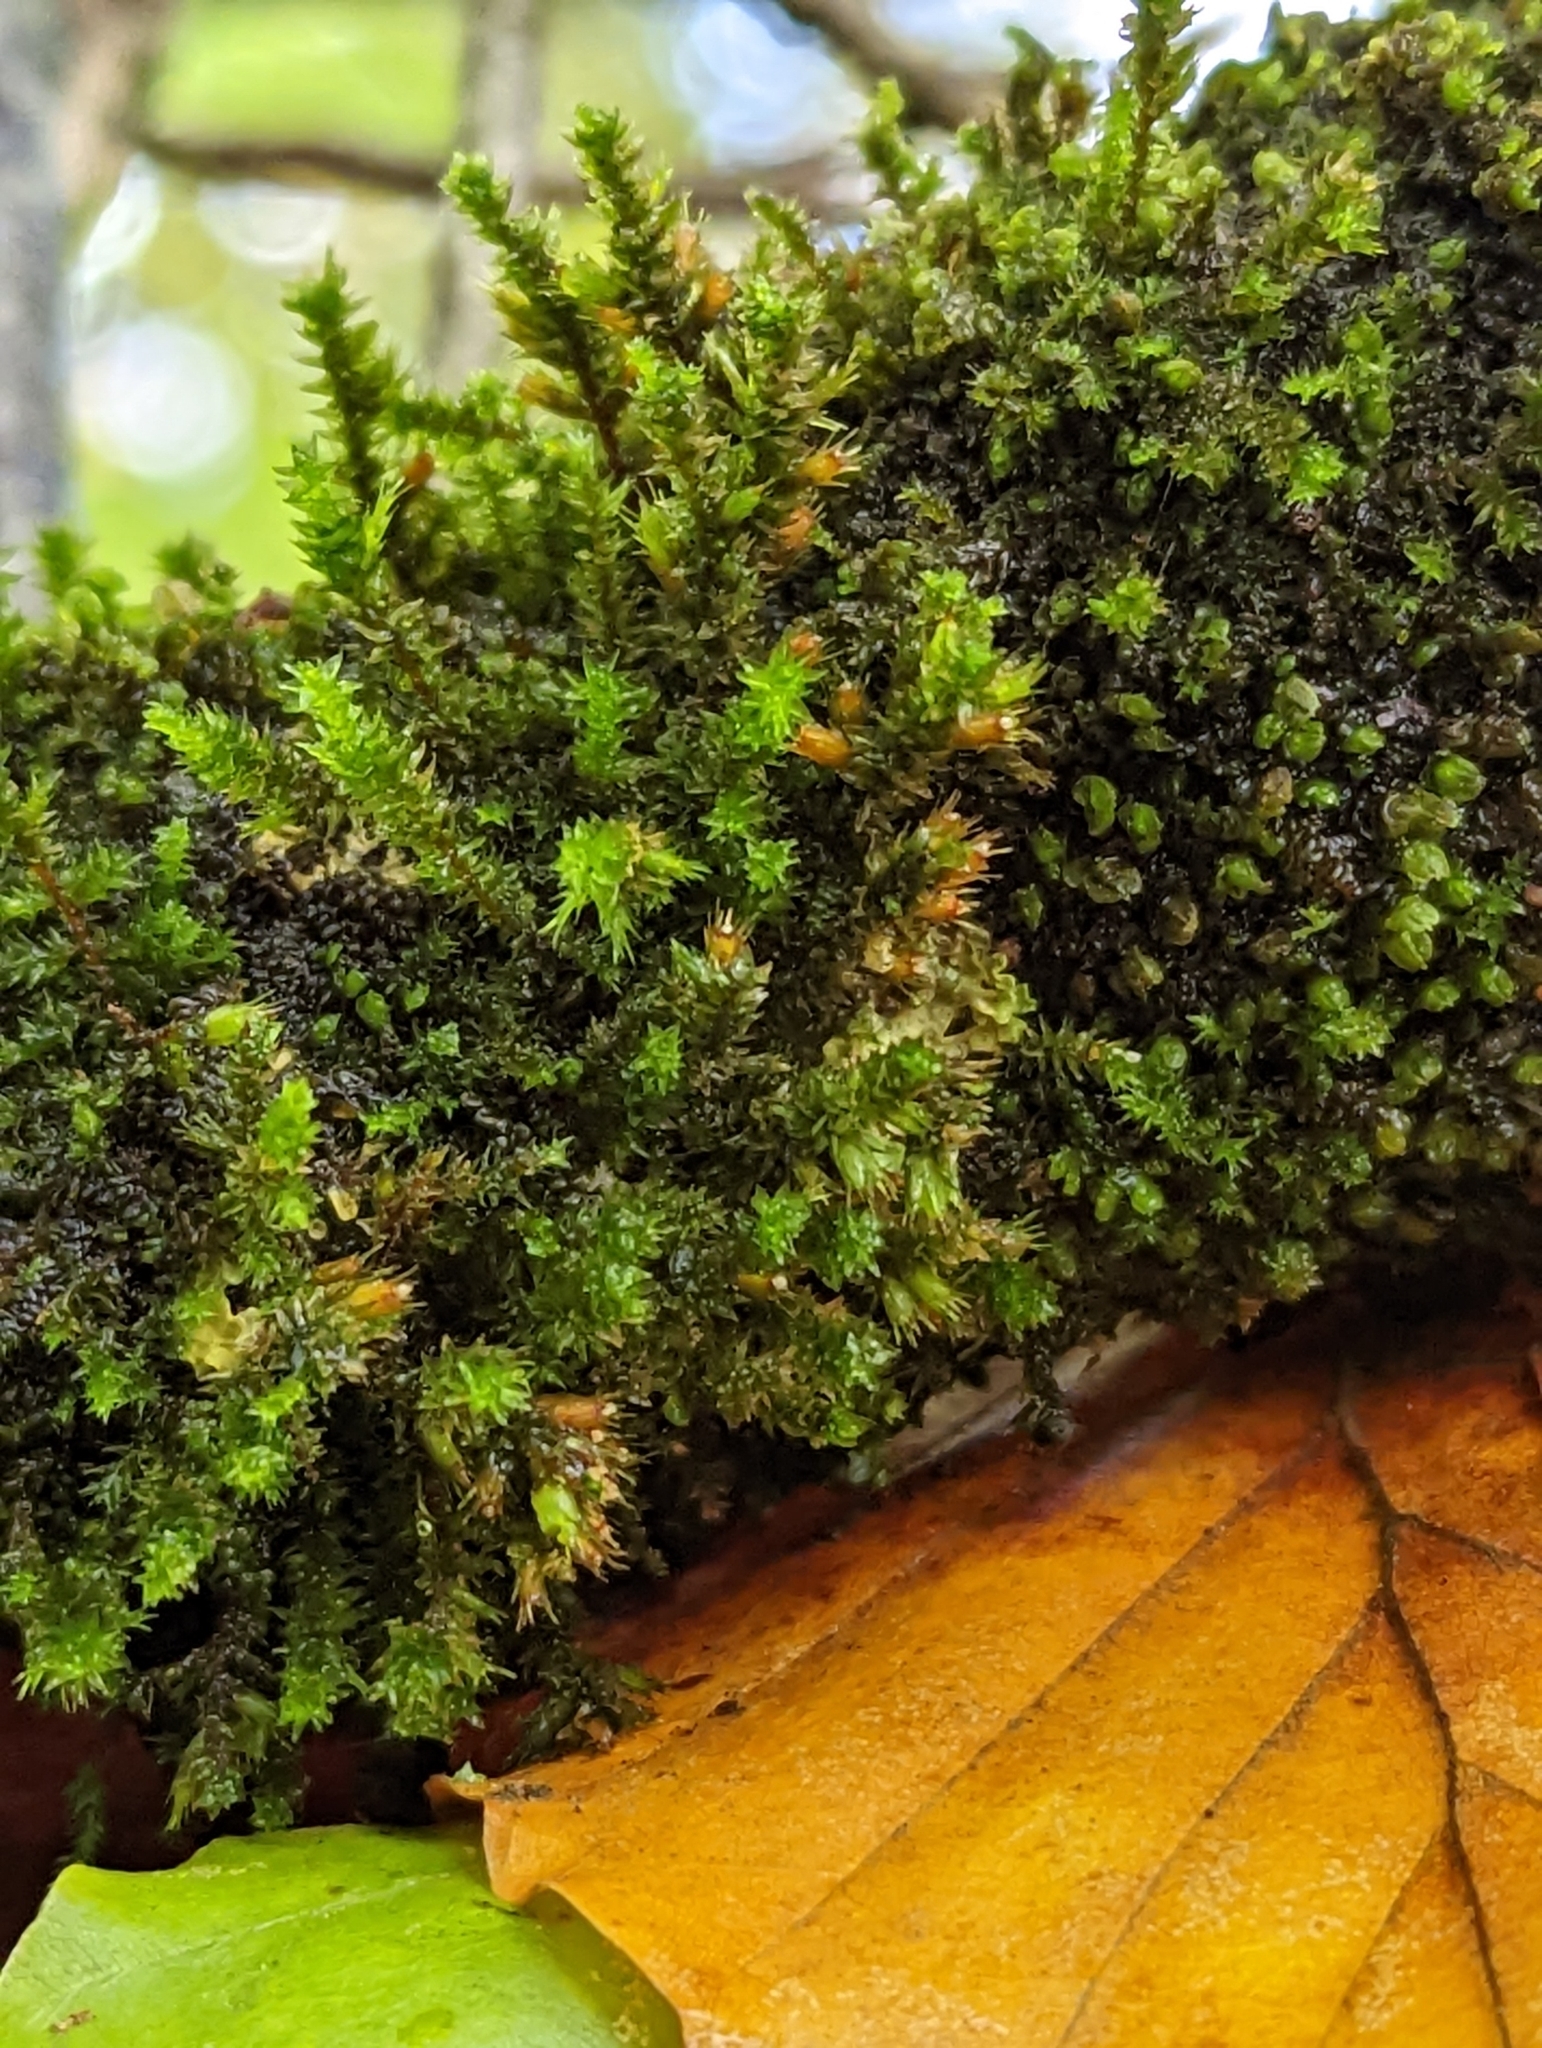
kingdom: Plantae
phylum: Bryophyta
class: Bryopsida
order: Hypnales
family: Cryphaeaceae
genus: Cryphaea
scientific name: Cryphaea heteromalla
